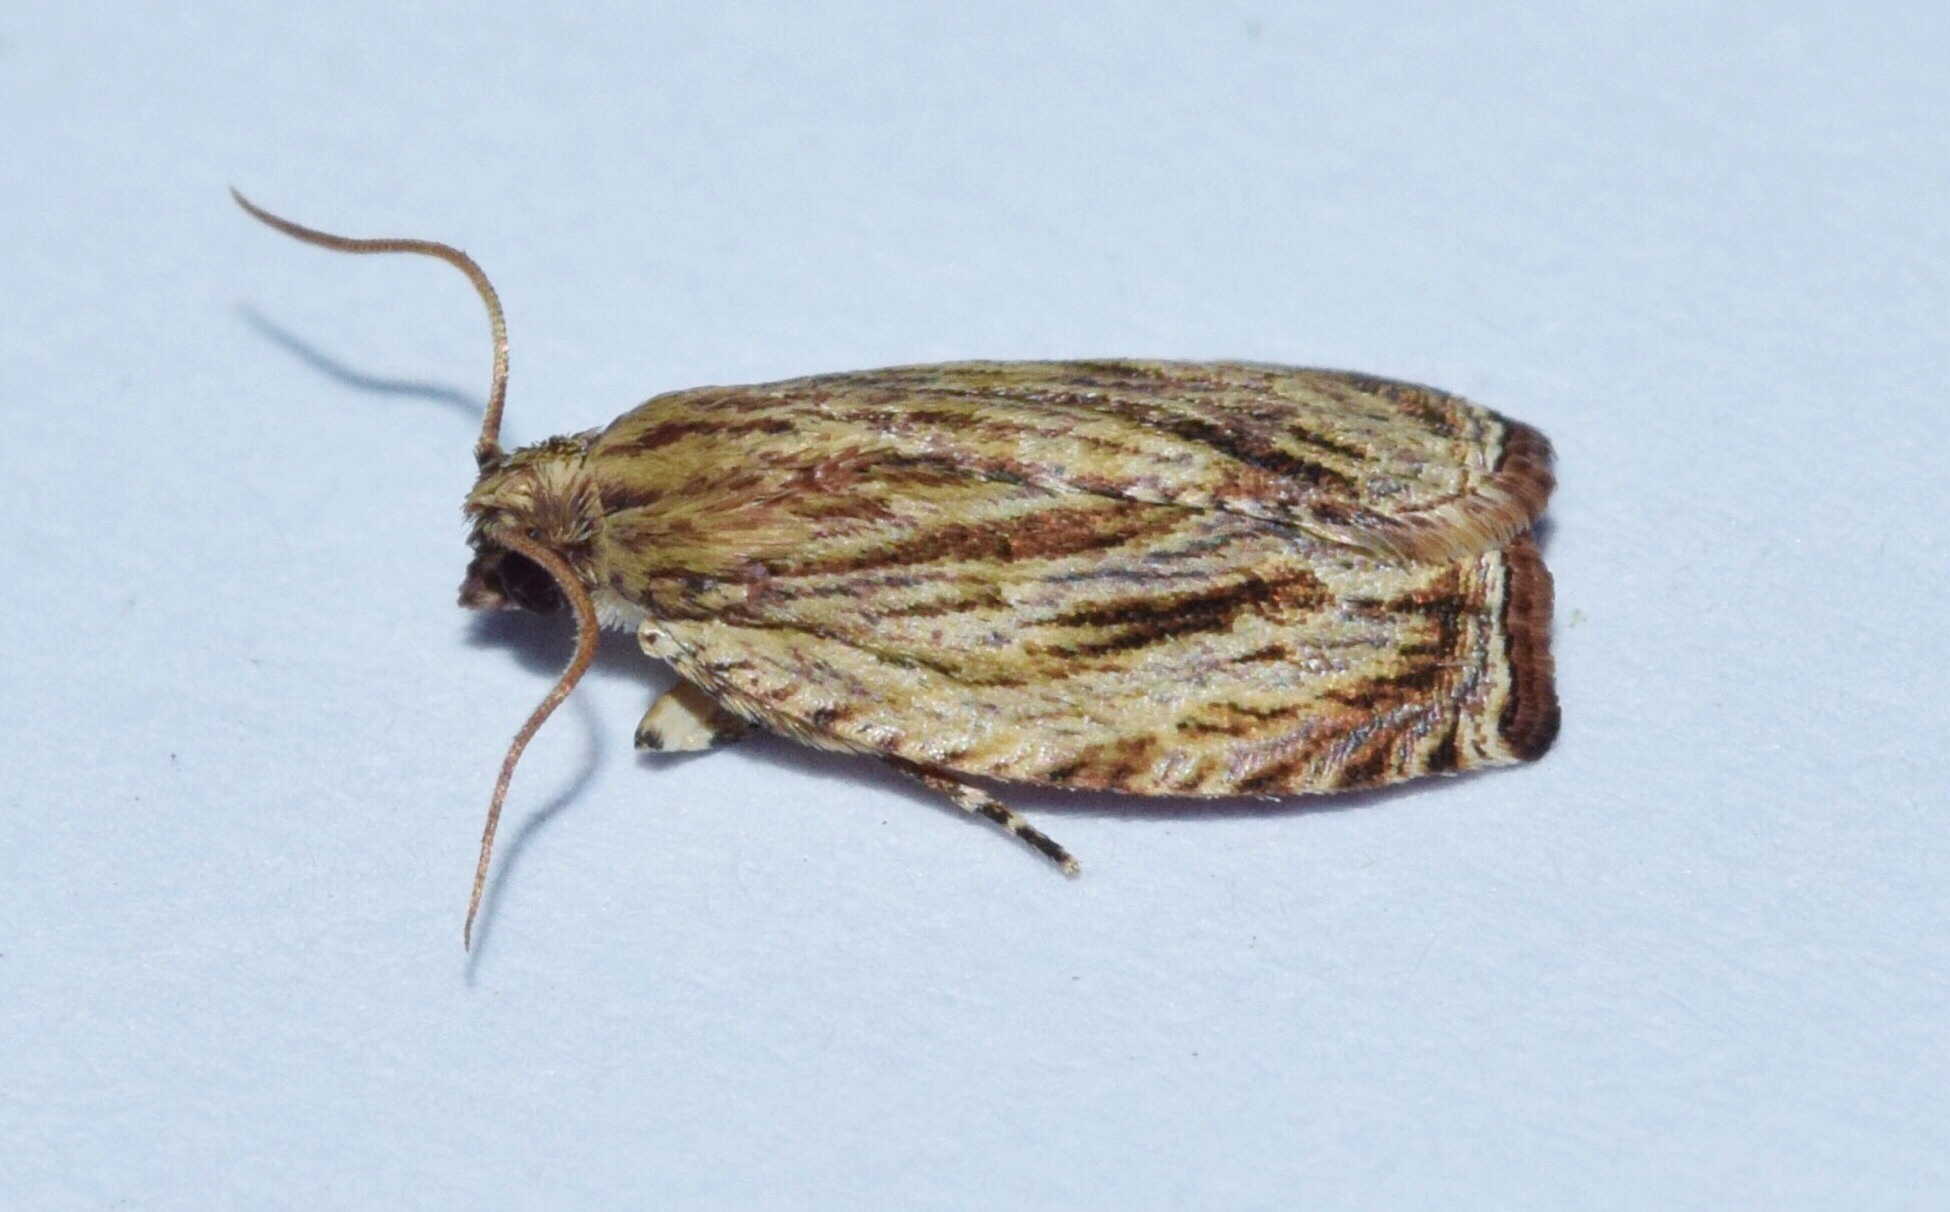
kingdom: Animalia
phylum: Arthropoda
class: Insecta
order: Lepidoptera
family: Tortricidae
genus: Plutographa
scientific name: Plutographa encharacta
